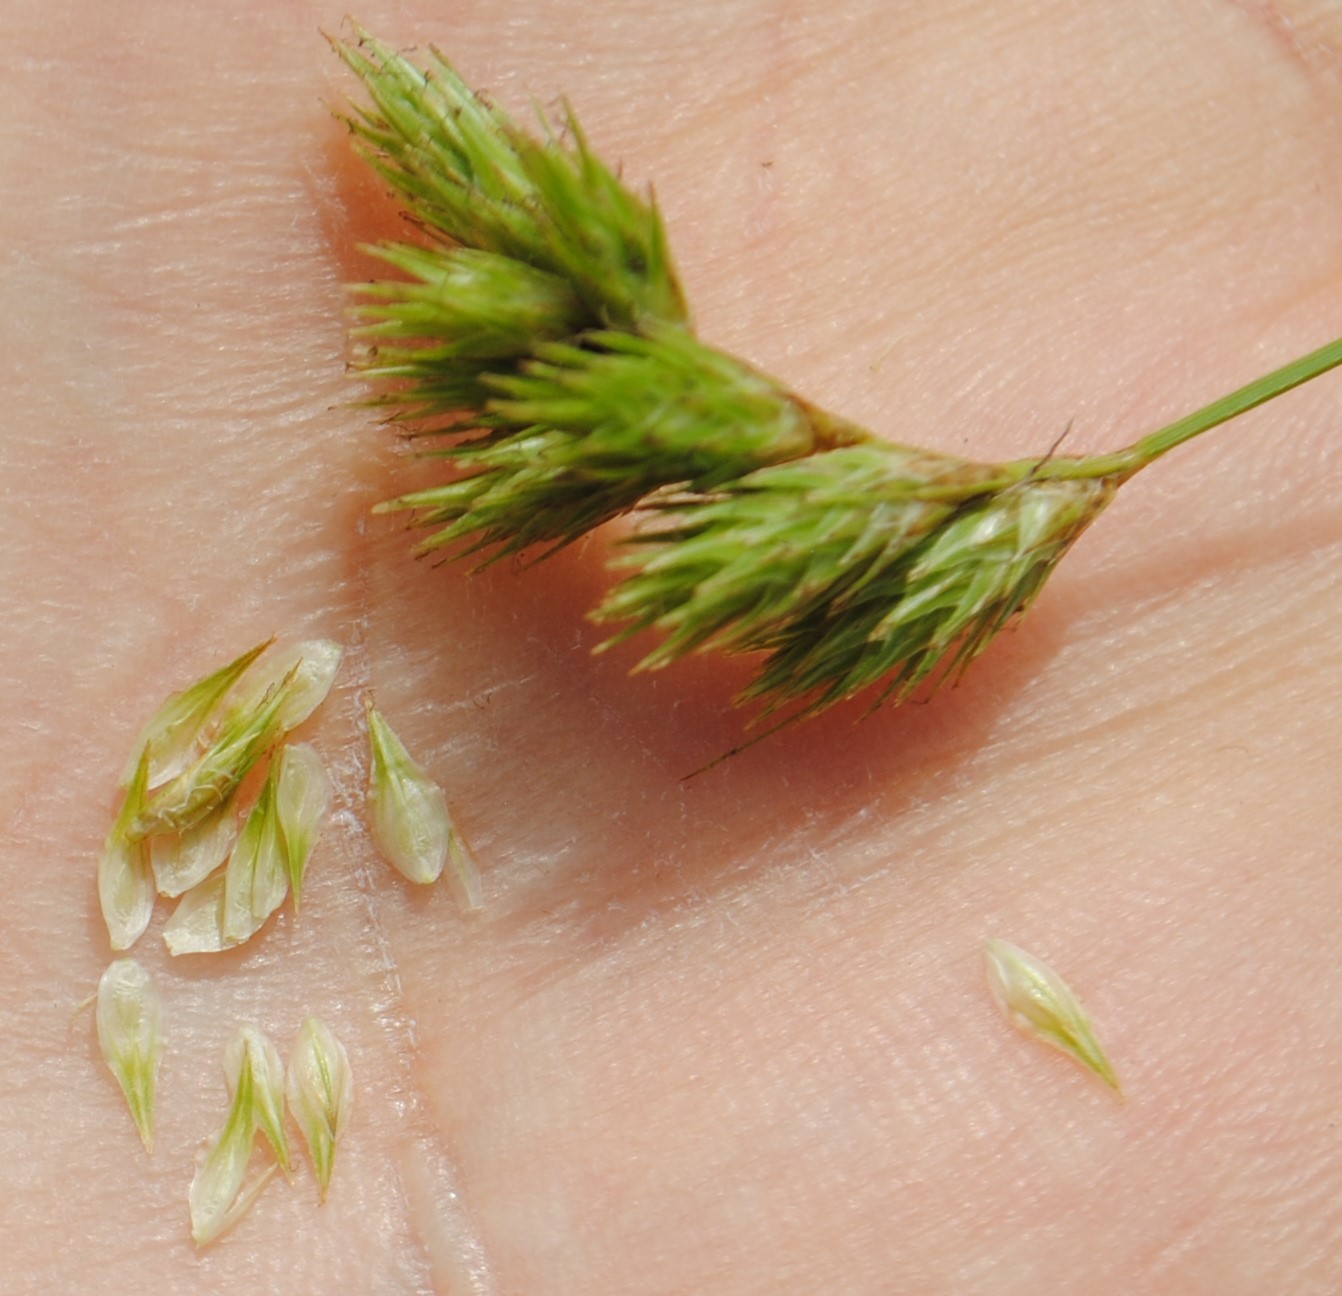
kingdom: Plantae
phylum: Tracheophyta
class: Liliopsida
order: Poales
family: Cyperaceae
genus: Carex
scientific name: Carex scoparia
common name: Broom sedge
